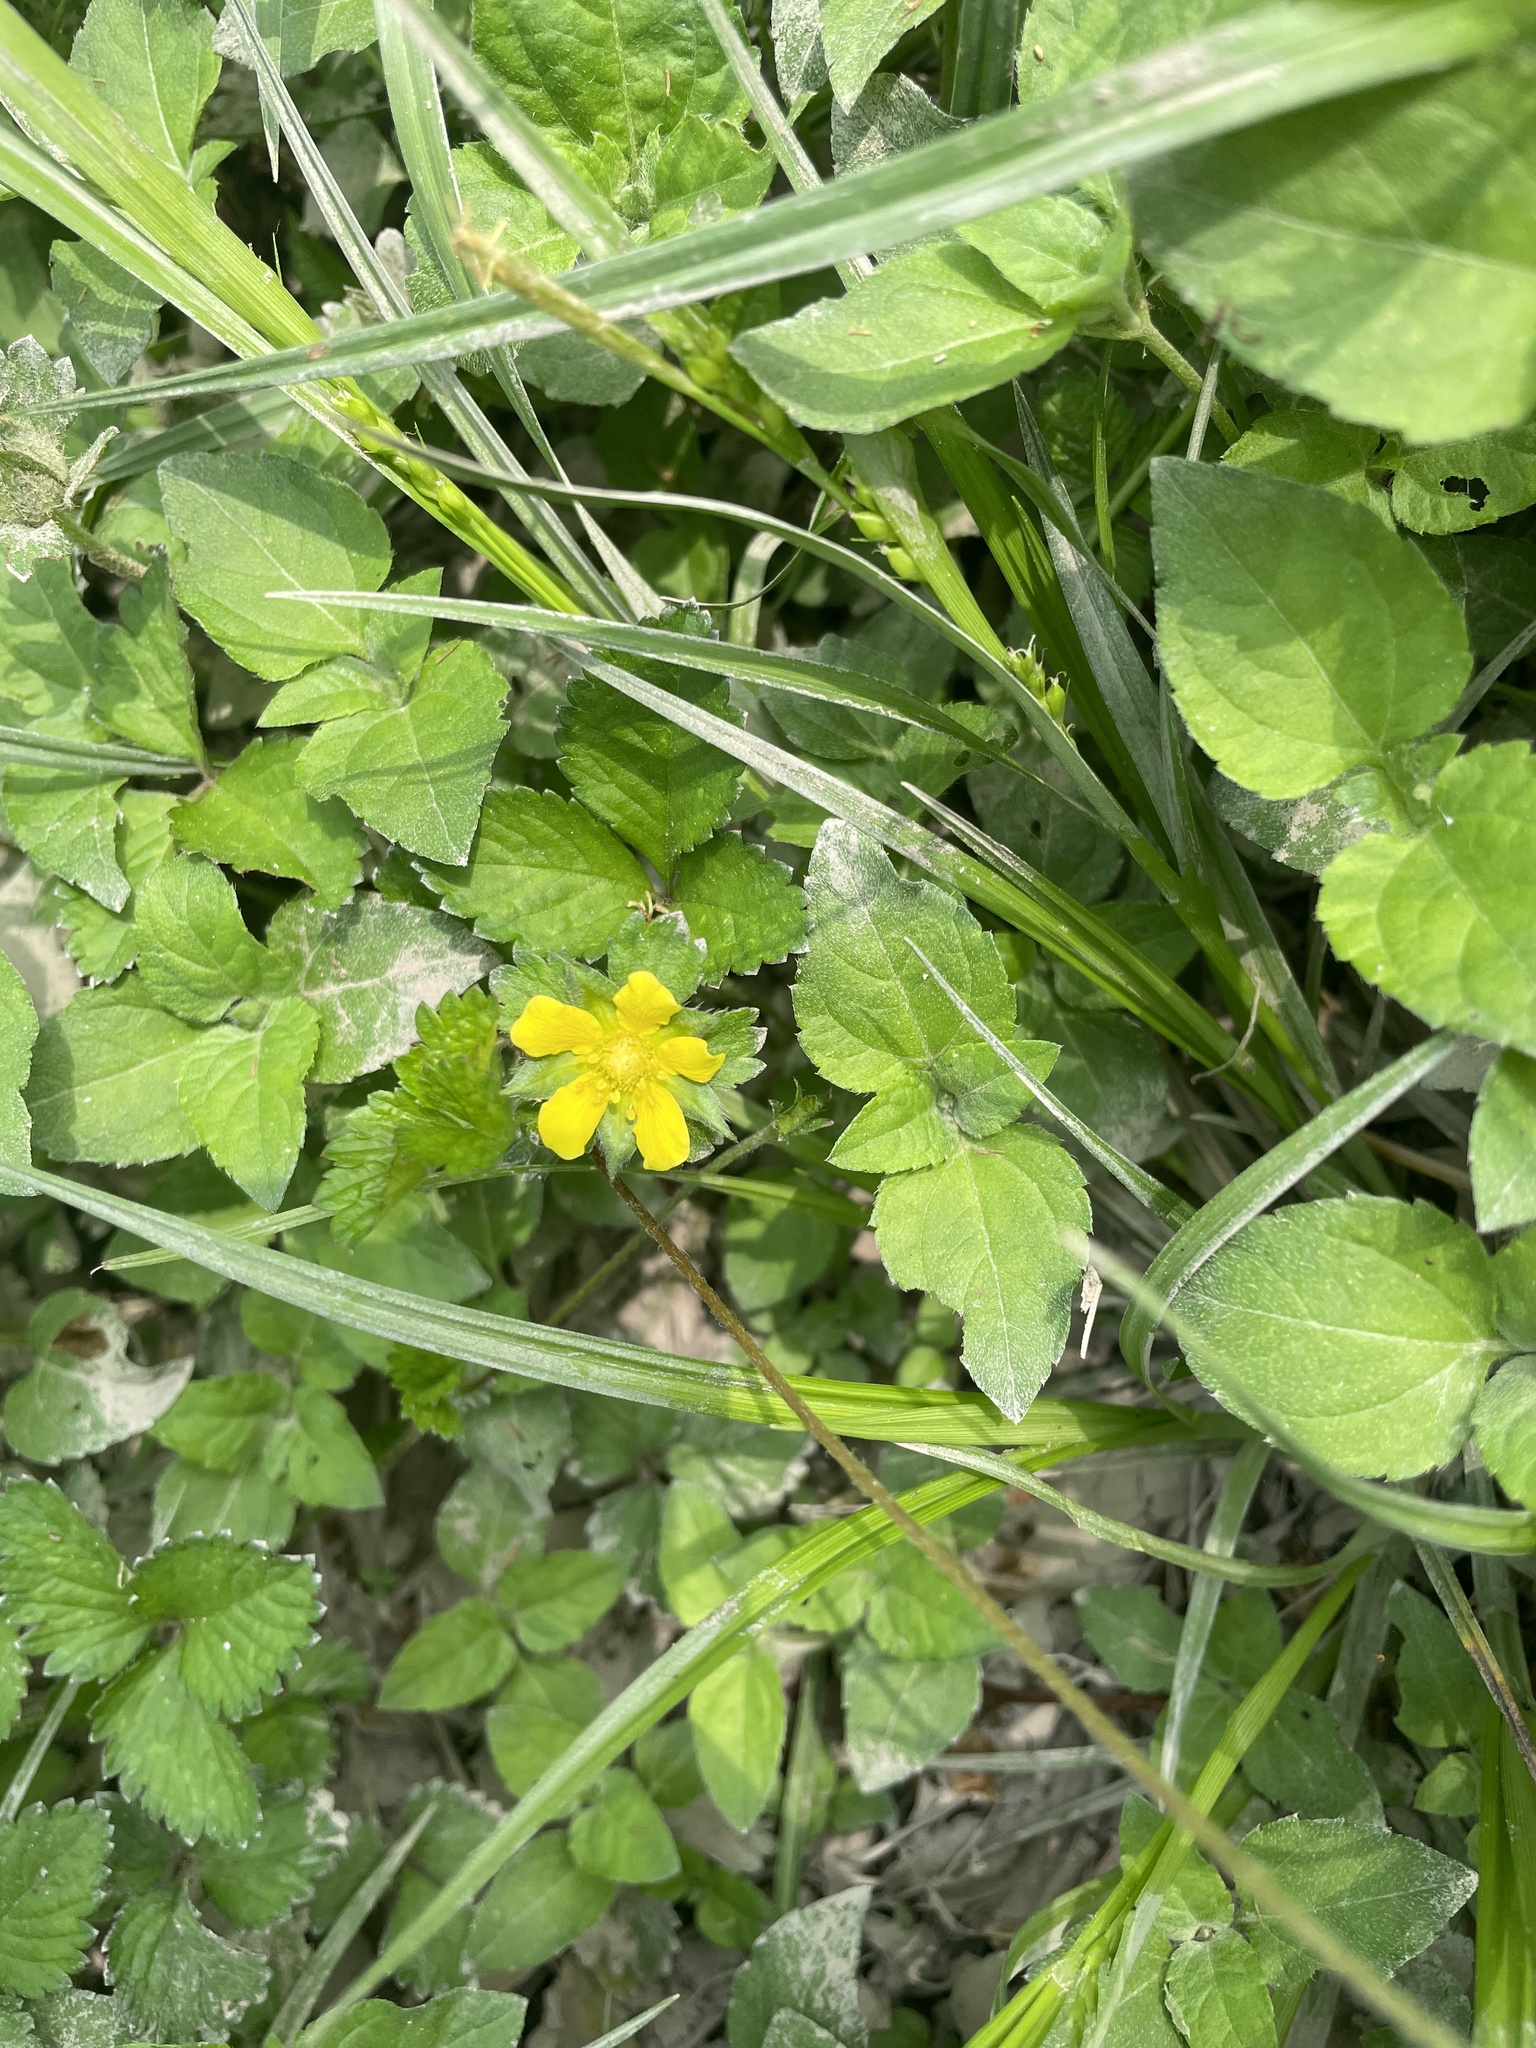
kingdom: Plantae
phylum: Tracheophyta
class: Magnoliopsida
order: Rosales
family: Rosaceae
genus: Potentilla
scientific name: Potentilla indica
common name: Yellow-flowered strawberry
